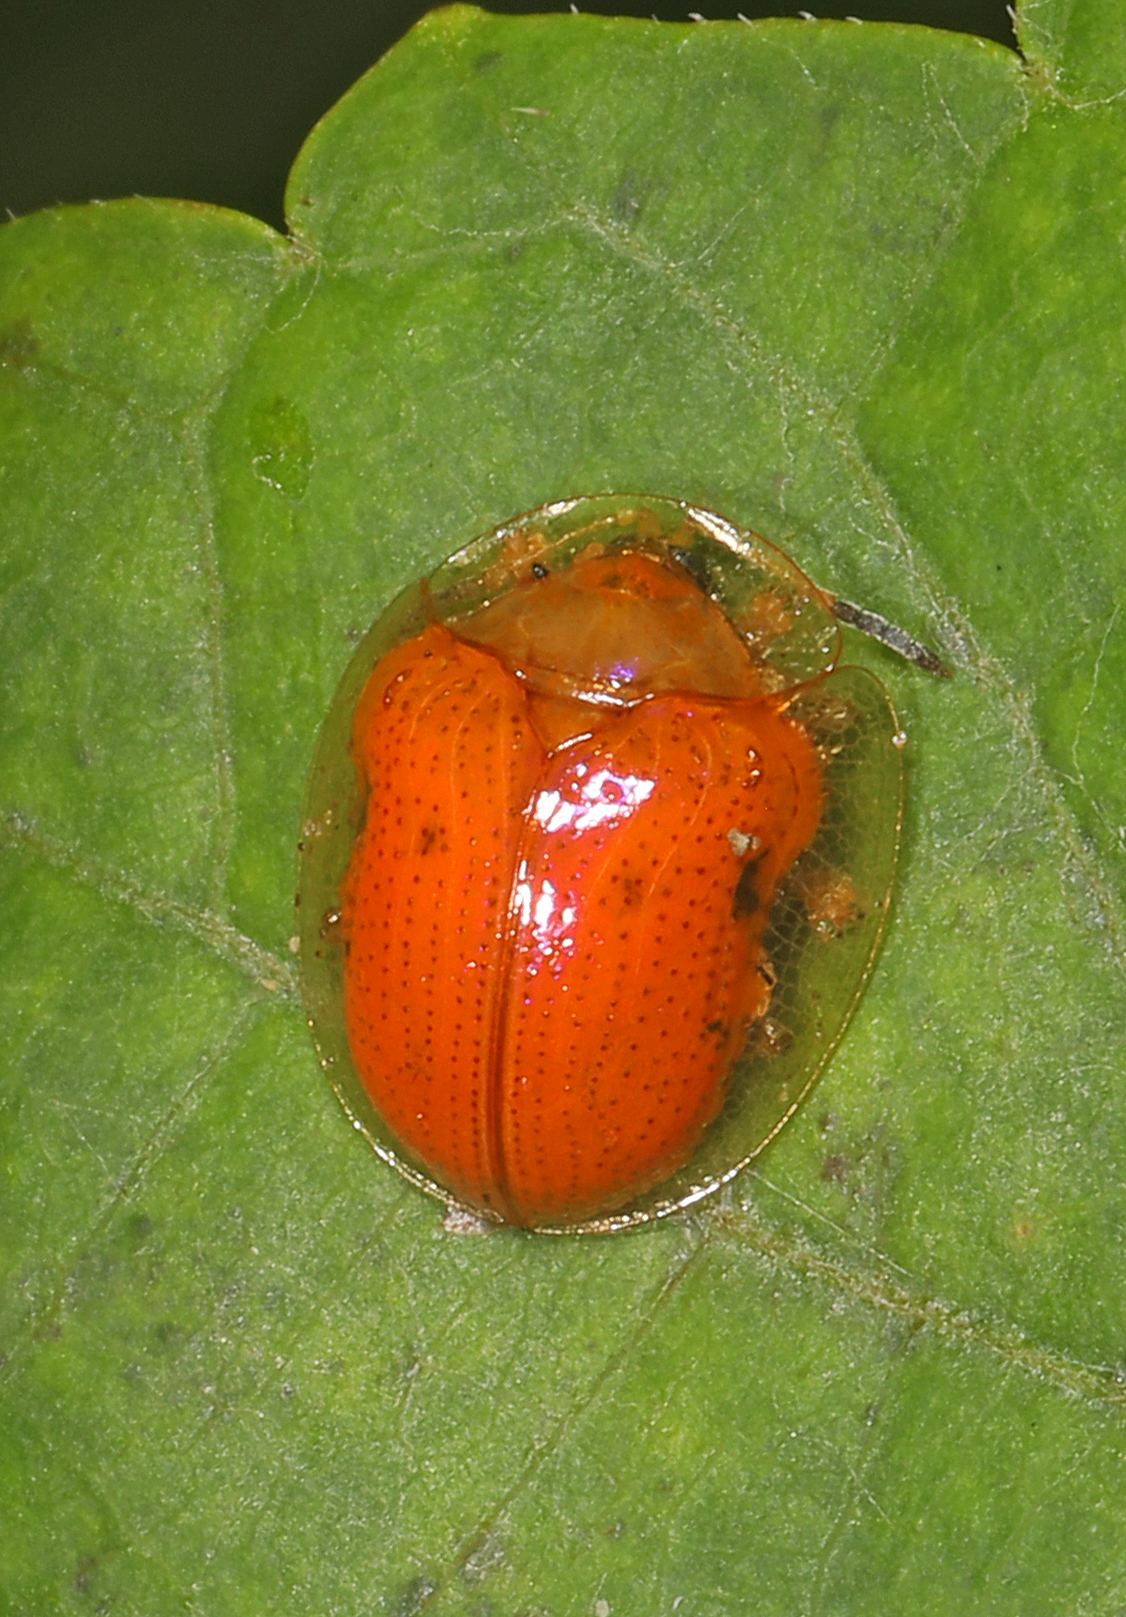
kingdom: Animalia
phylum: Arthropoda
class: Insecta
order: Coleoptera
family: Chrysomelidae
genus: Charidotella
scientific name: Charidotella sexpunctata
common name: Golden tortoise beetle
